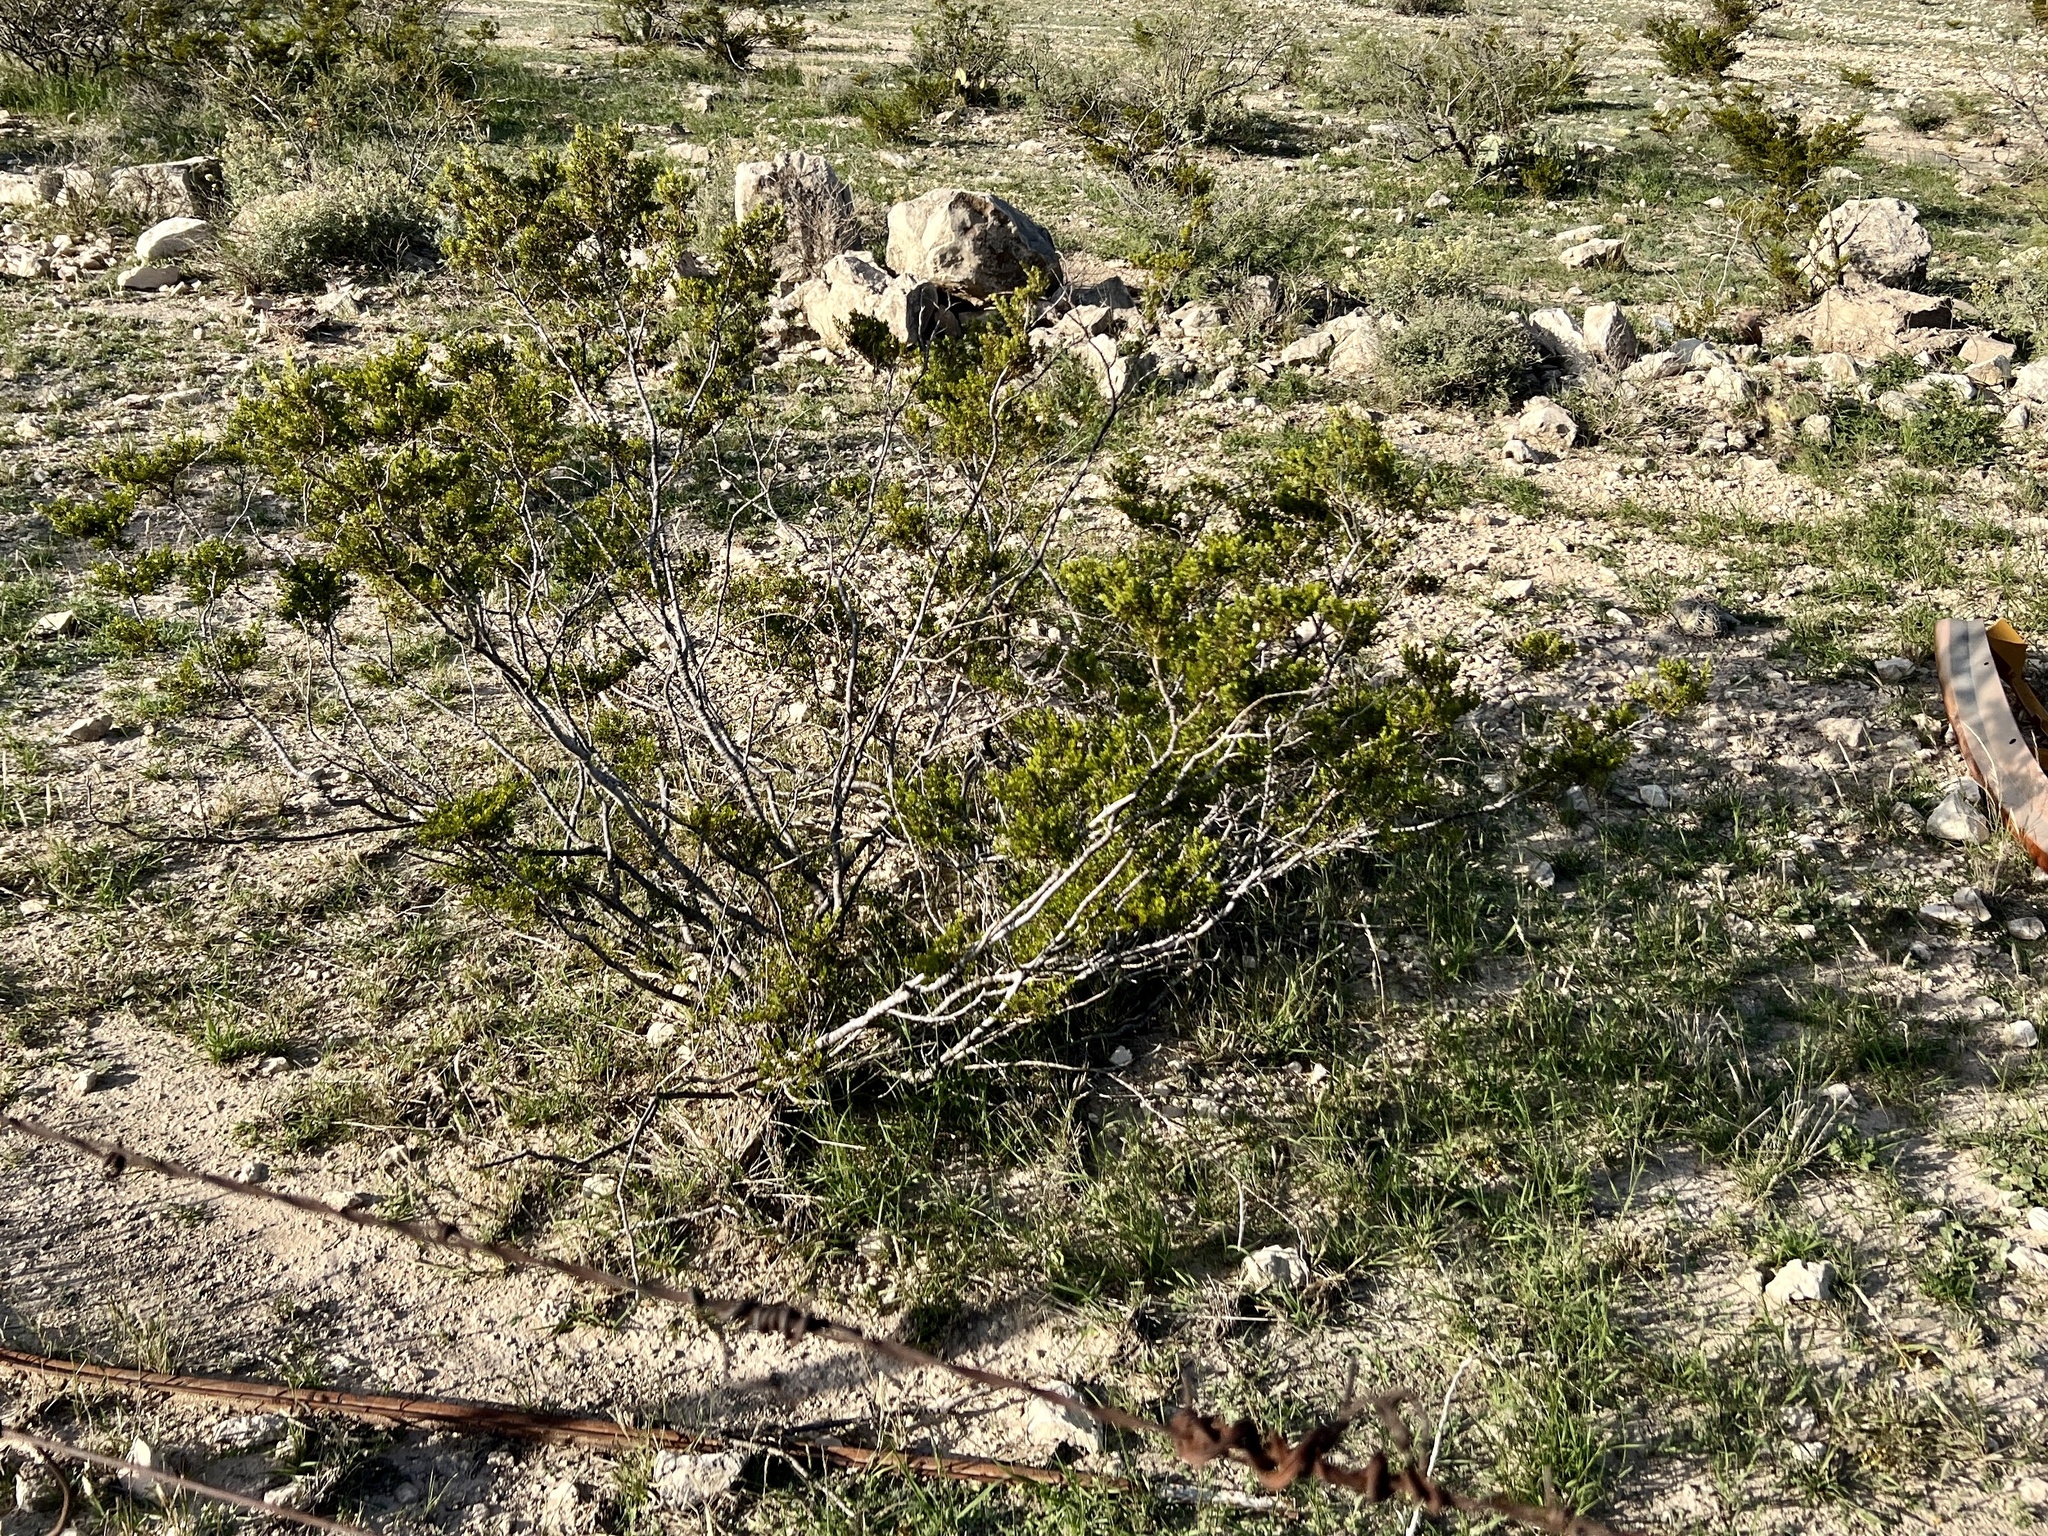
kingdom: Plantae
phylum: Tracheophyta
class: Magnoliopsida
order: Zygophyllales
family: Zygophyllaceae
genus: Larrea
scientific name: Larrea tridentata
